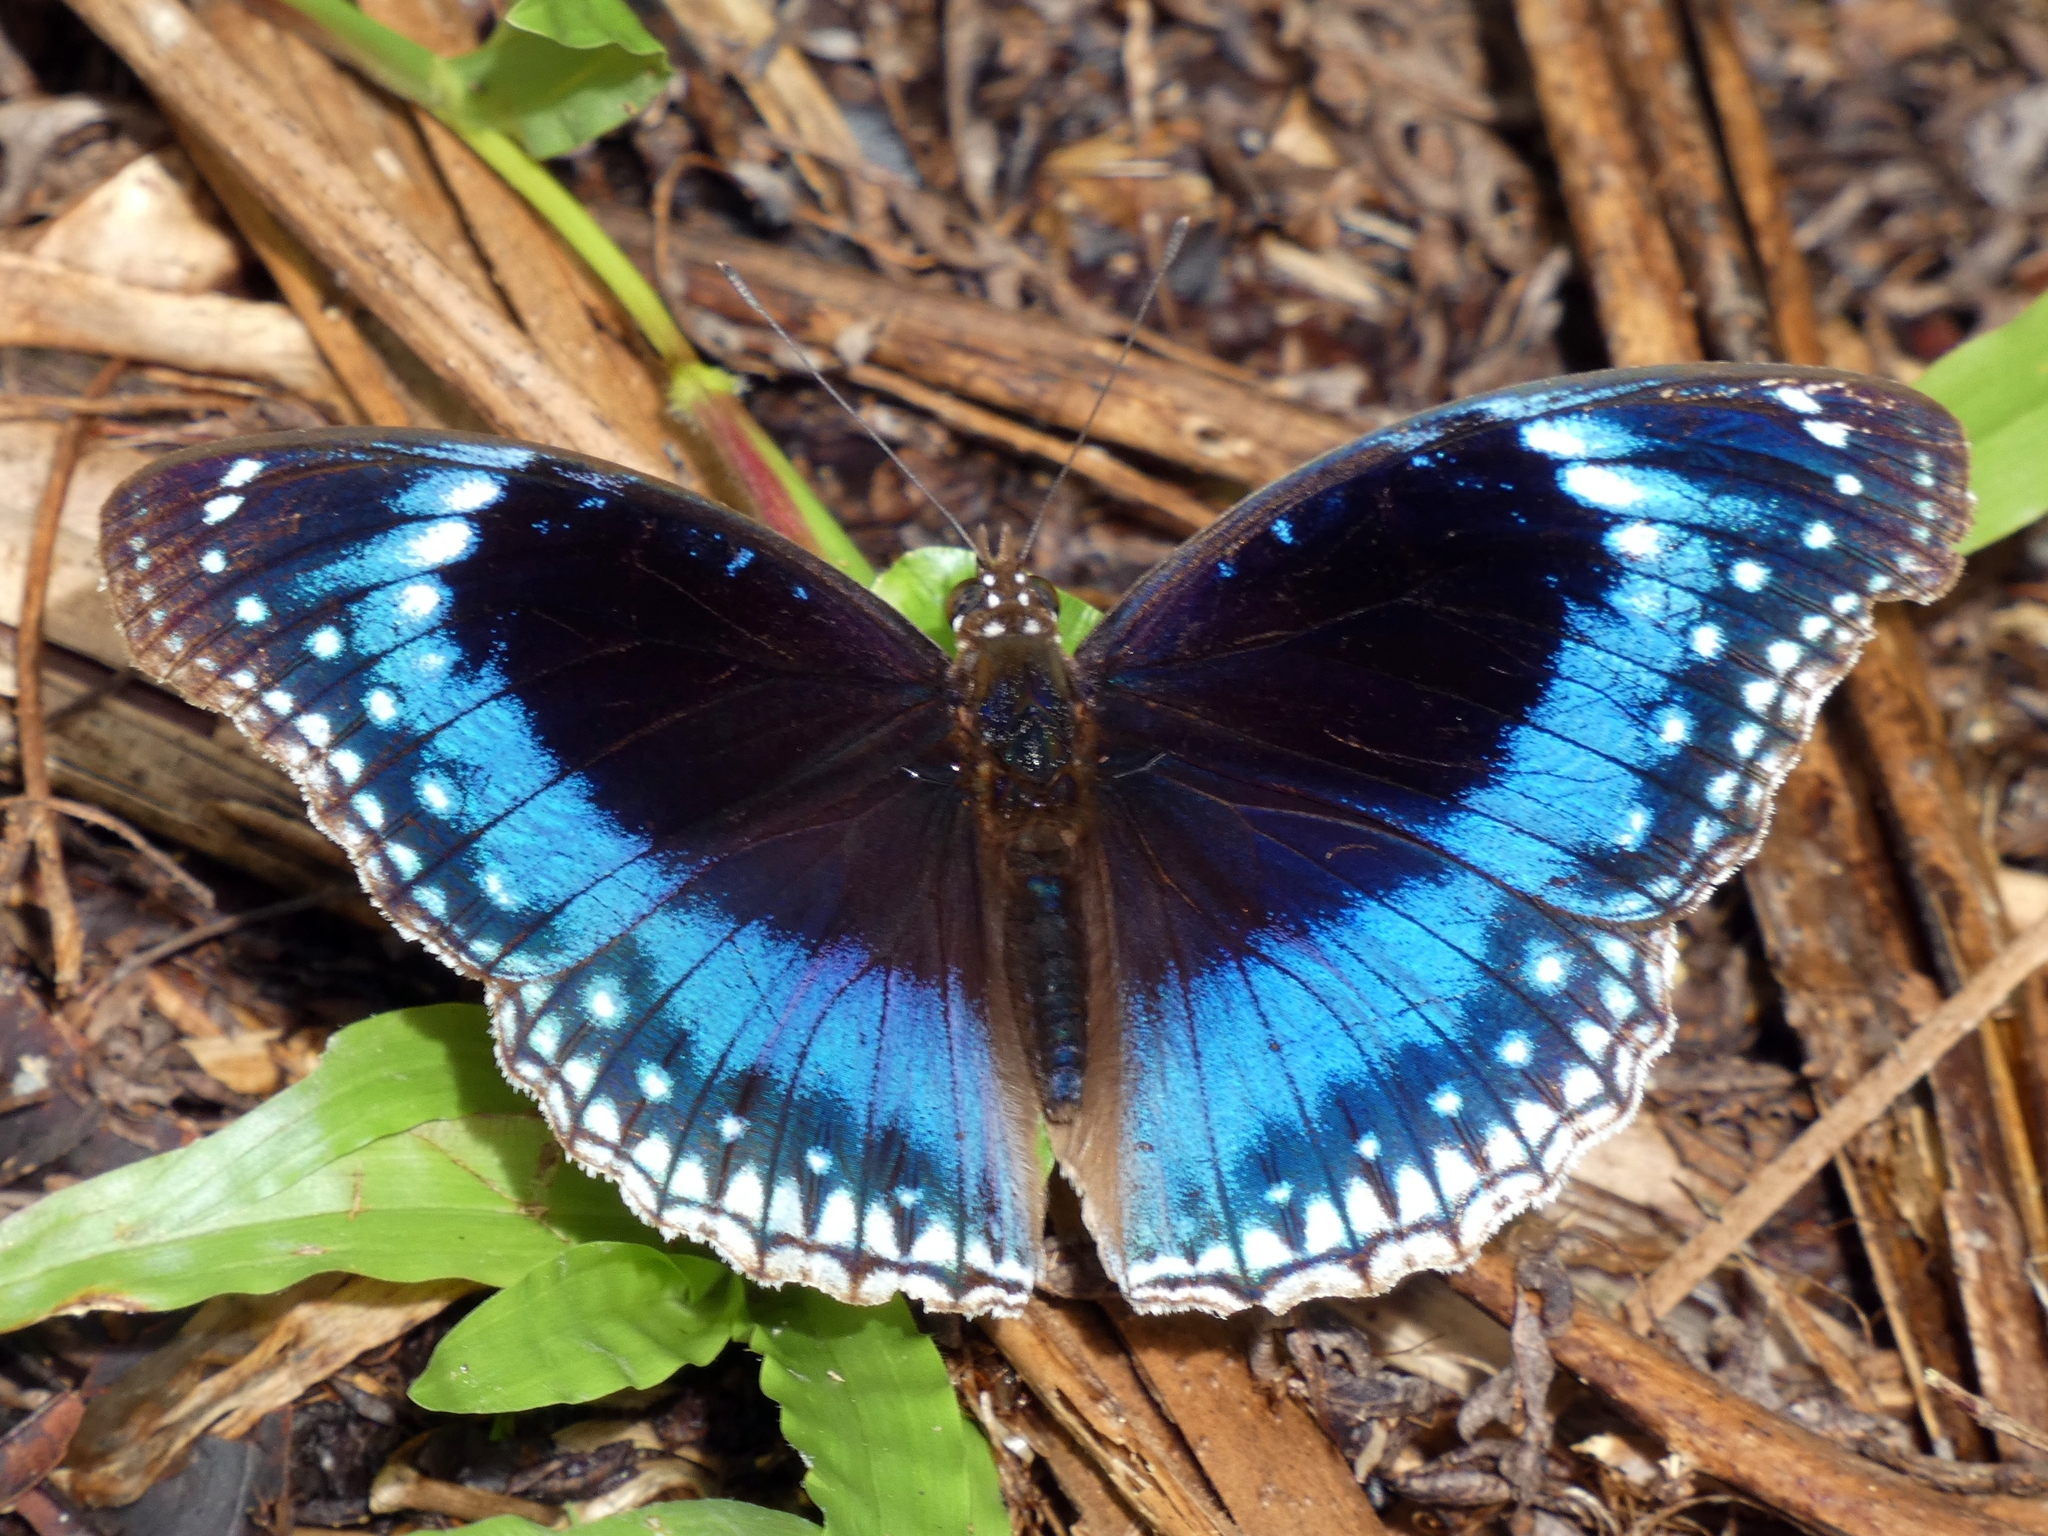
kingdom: Animalia
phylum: Arthropoda
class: Insecta
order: Lepidoptera
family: Nymphalidae
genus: Hypolimnas
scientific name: Hypolimnas alimena
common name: Blue-banded eggfly
